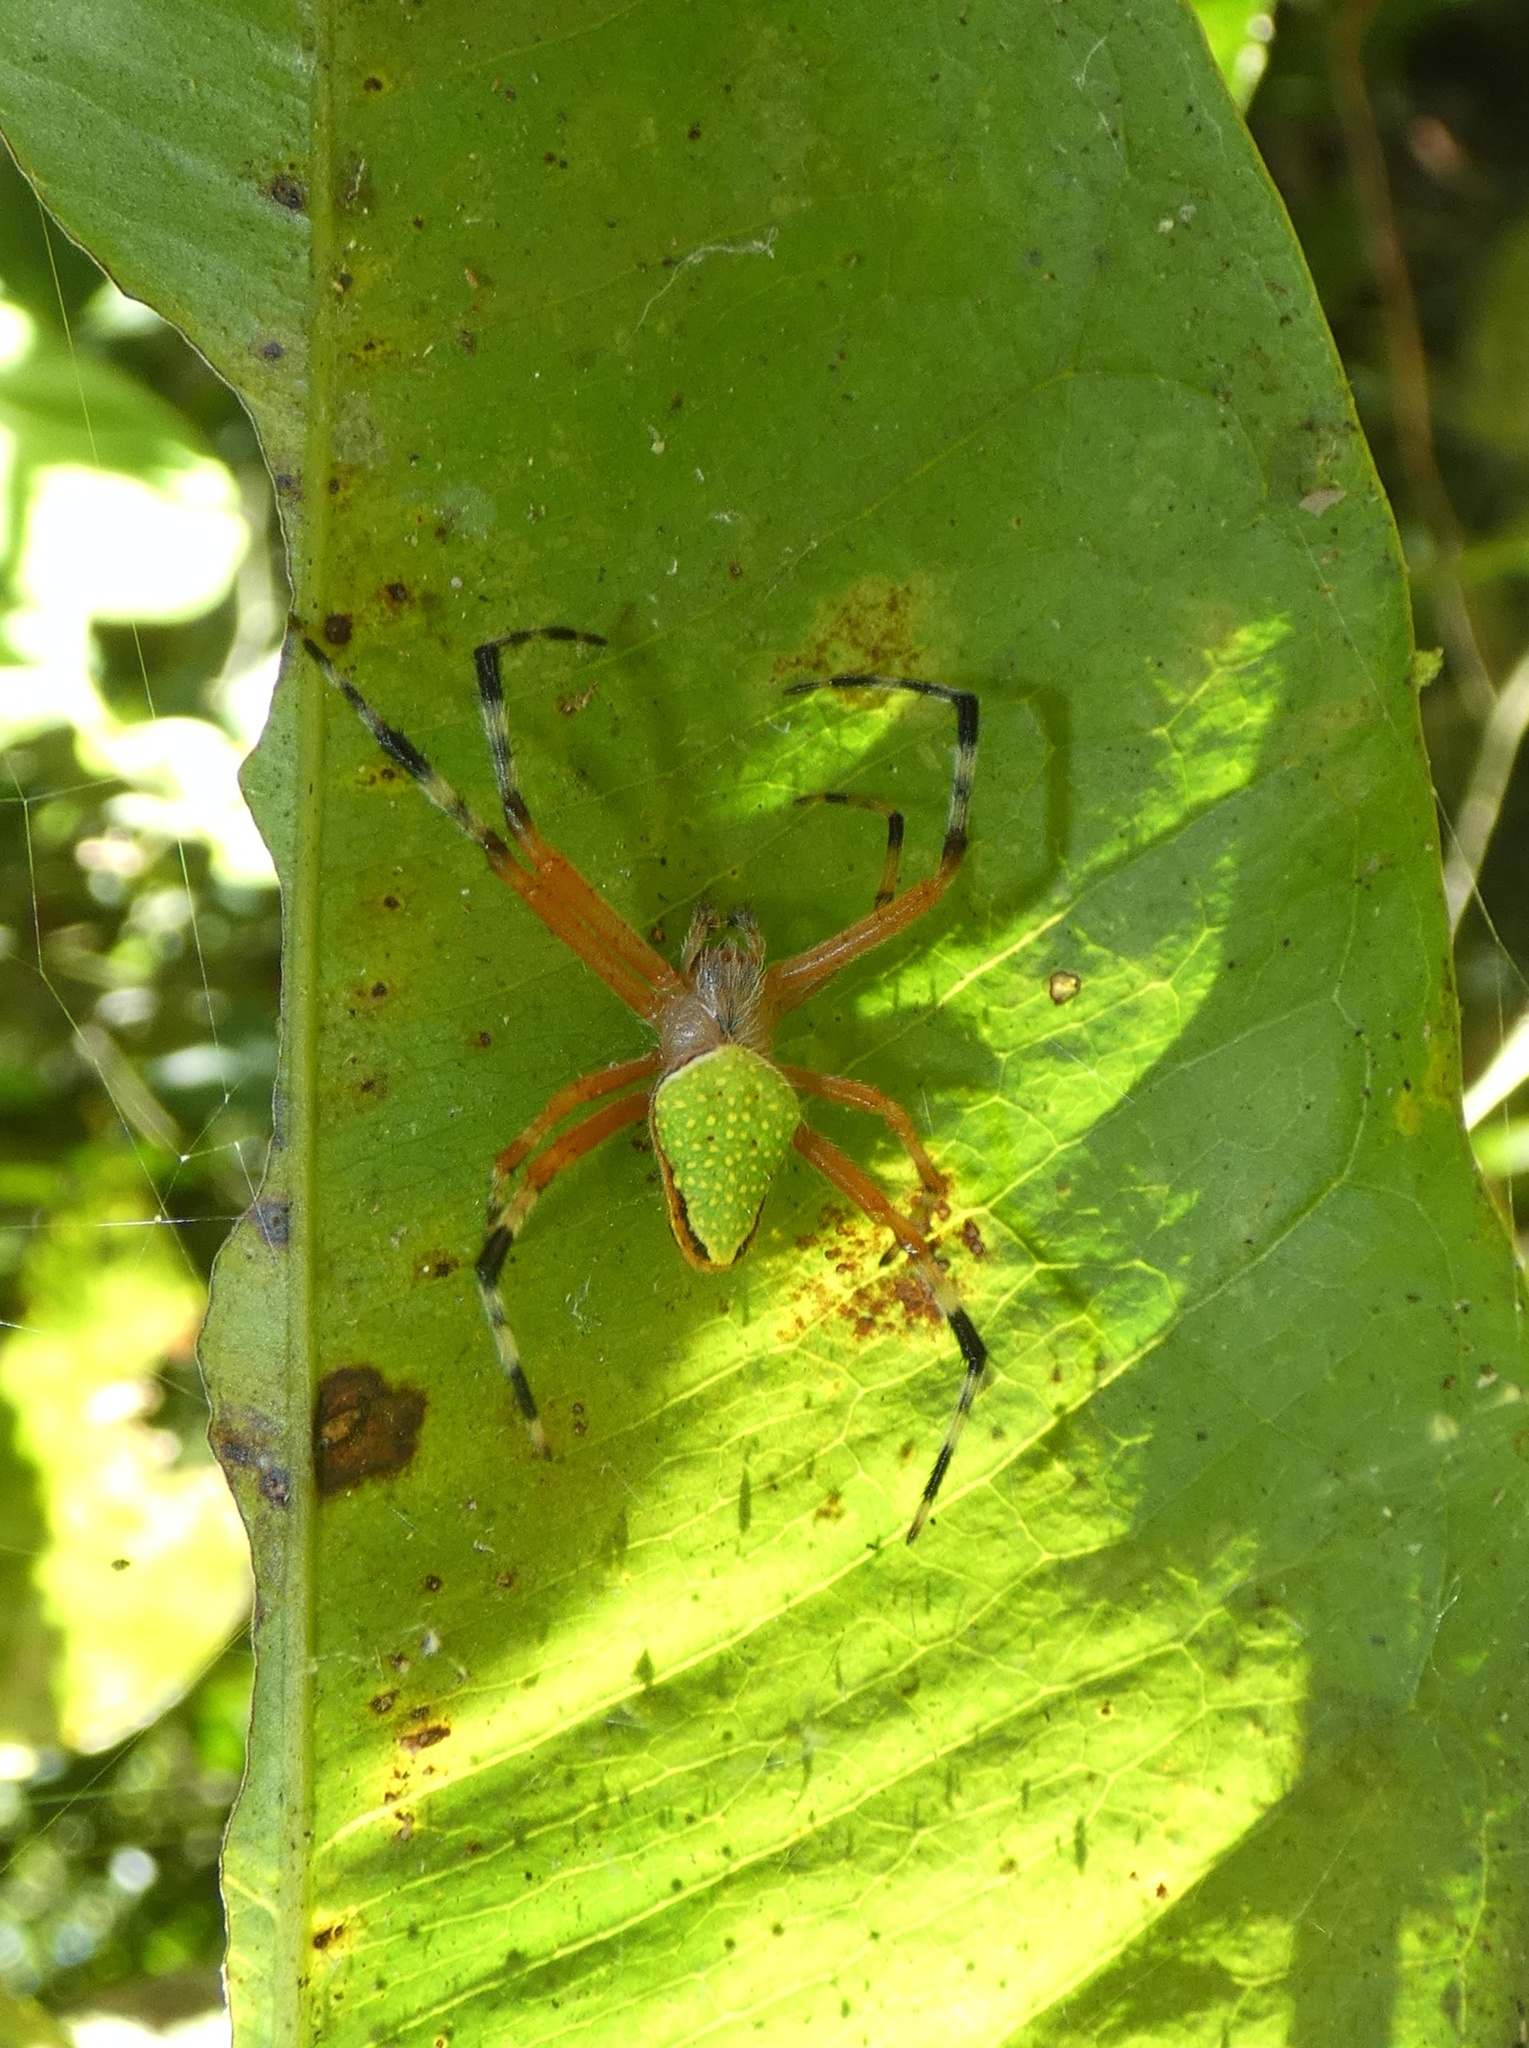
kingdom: Animalia
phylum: Arthropoda
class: Arachnida
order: Araneae
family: Araneidae
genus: Eriophora
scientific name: Eriophora nephiloides
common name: Orb weavers
